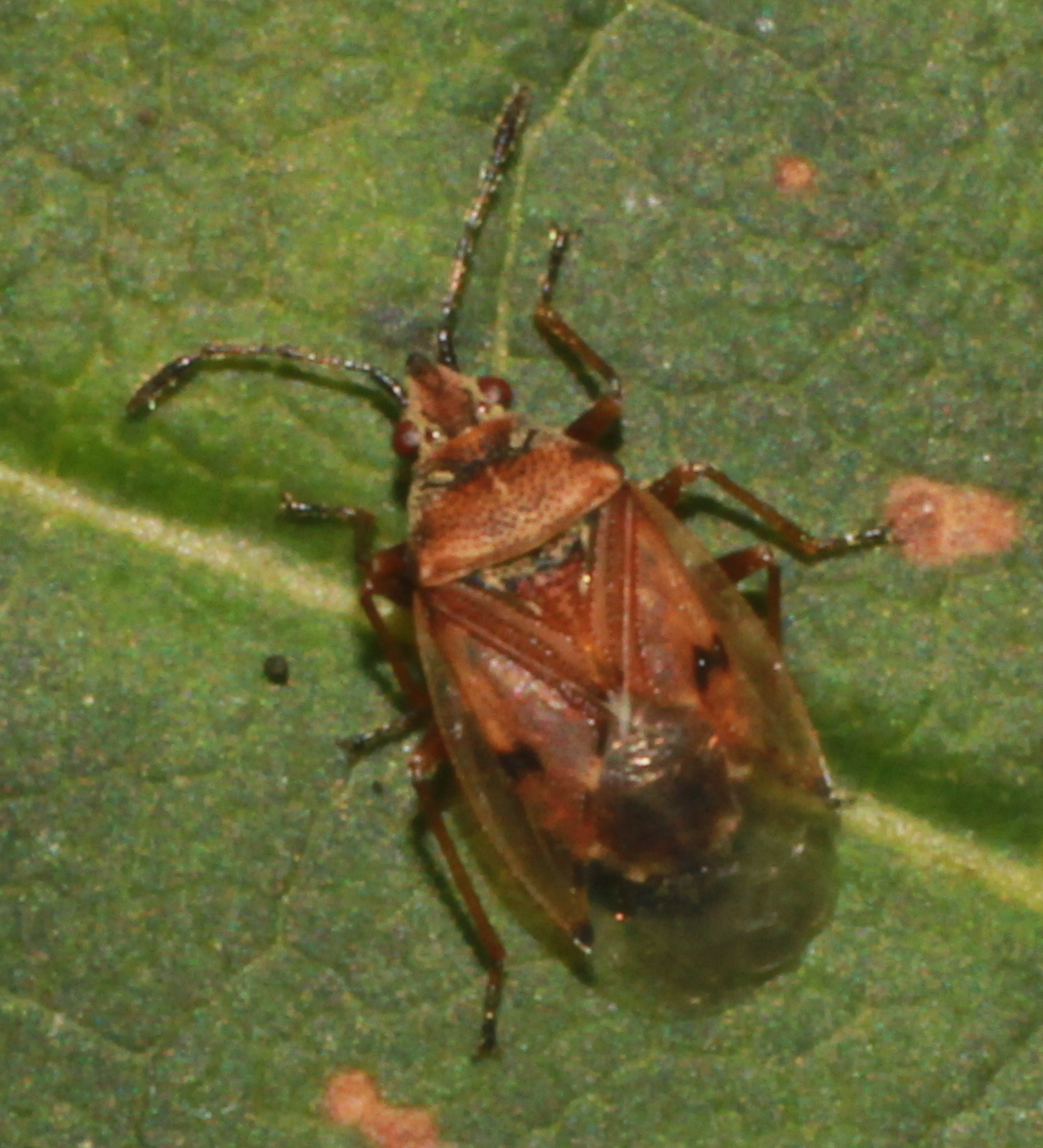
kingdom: Animalia
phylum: Arthropoda
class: Insecta
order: Hemiptera
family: Lygaeidae
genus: Kleidocerys
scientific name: Kleidocerys resedae
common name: Birch catkin bug
